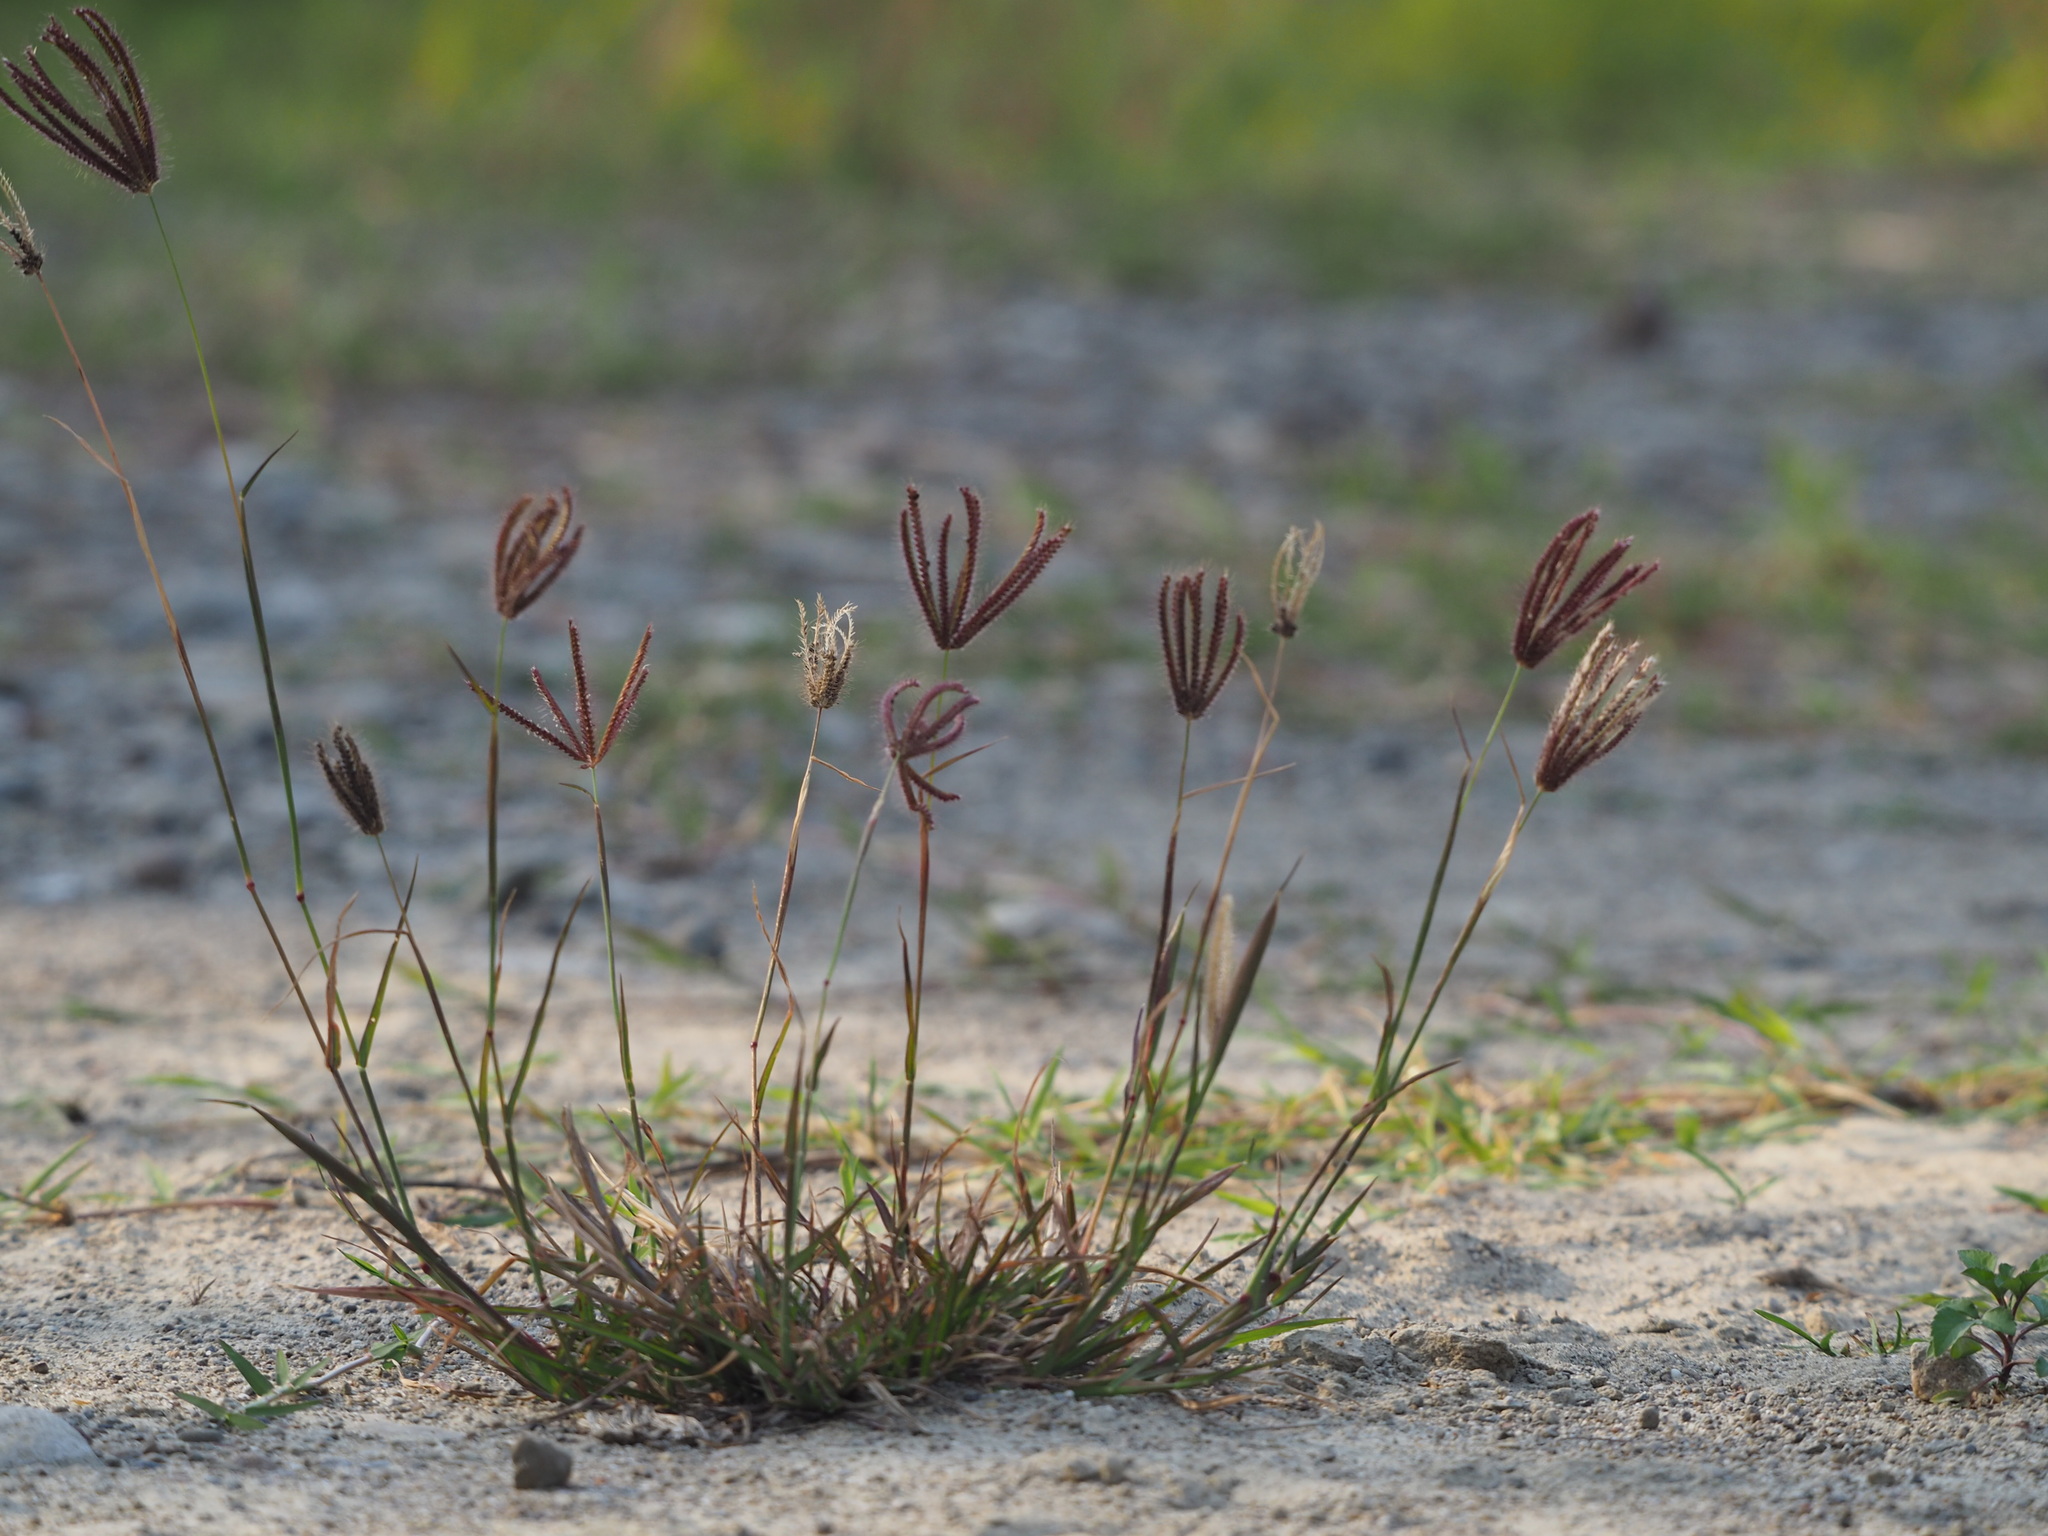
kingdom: Plantae
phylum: Tracheophyta
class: Liliopsida
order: Poales
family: Poaceae
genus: Chloris
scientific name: Chloris barbata
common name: Swollen fingergrass
